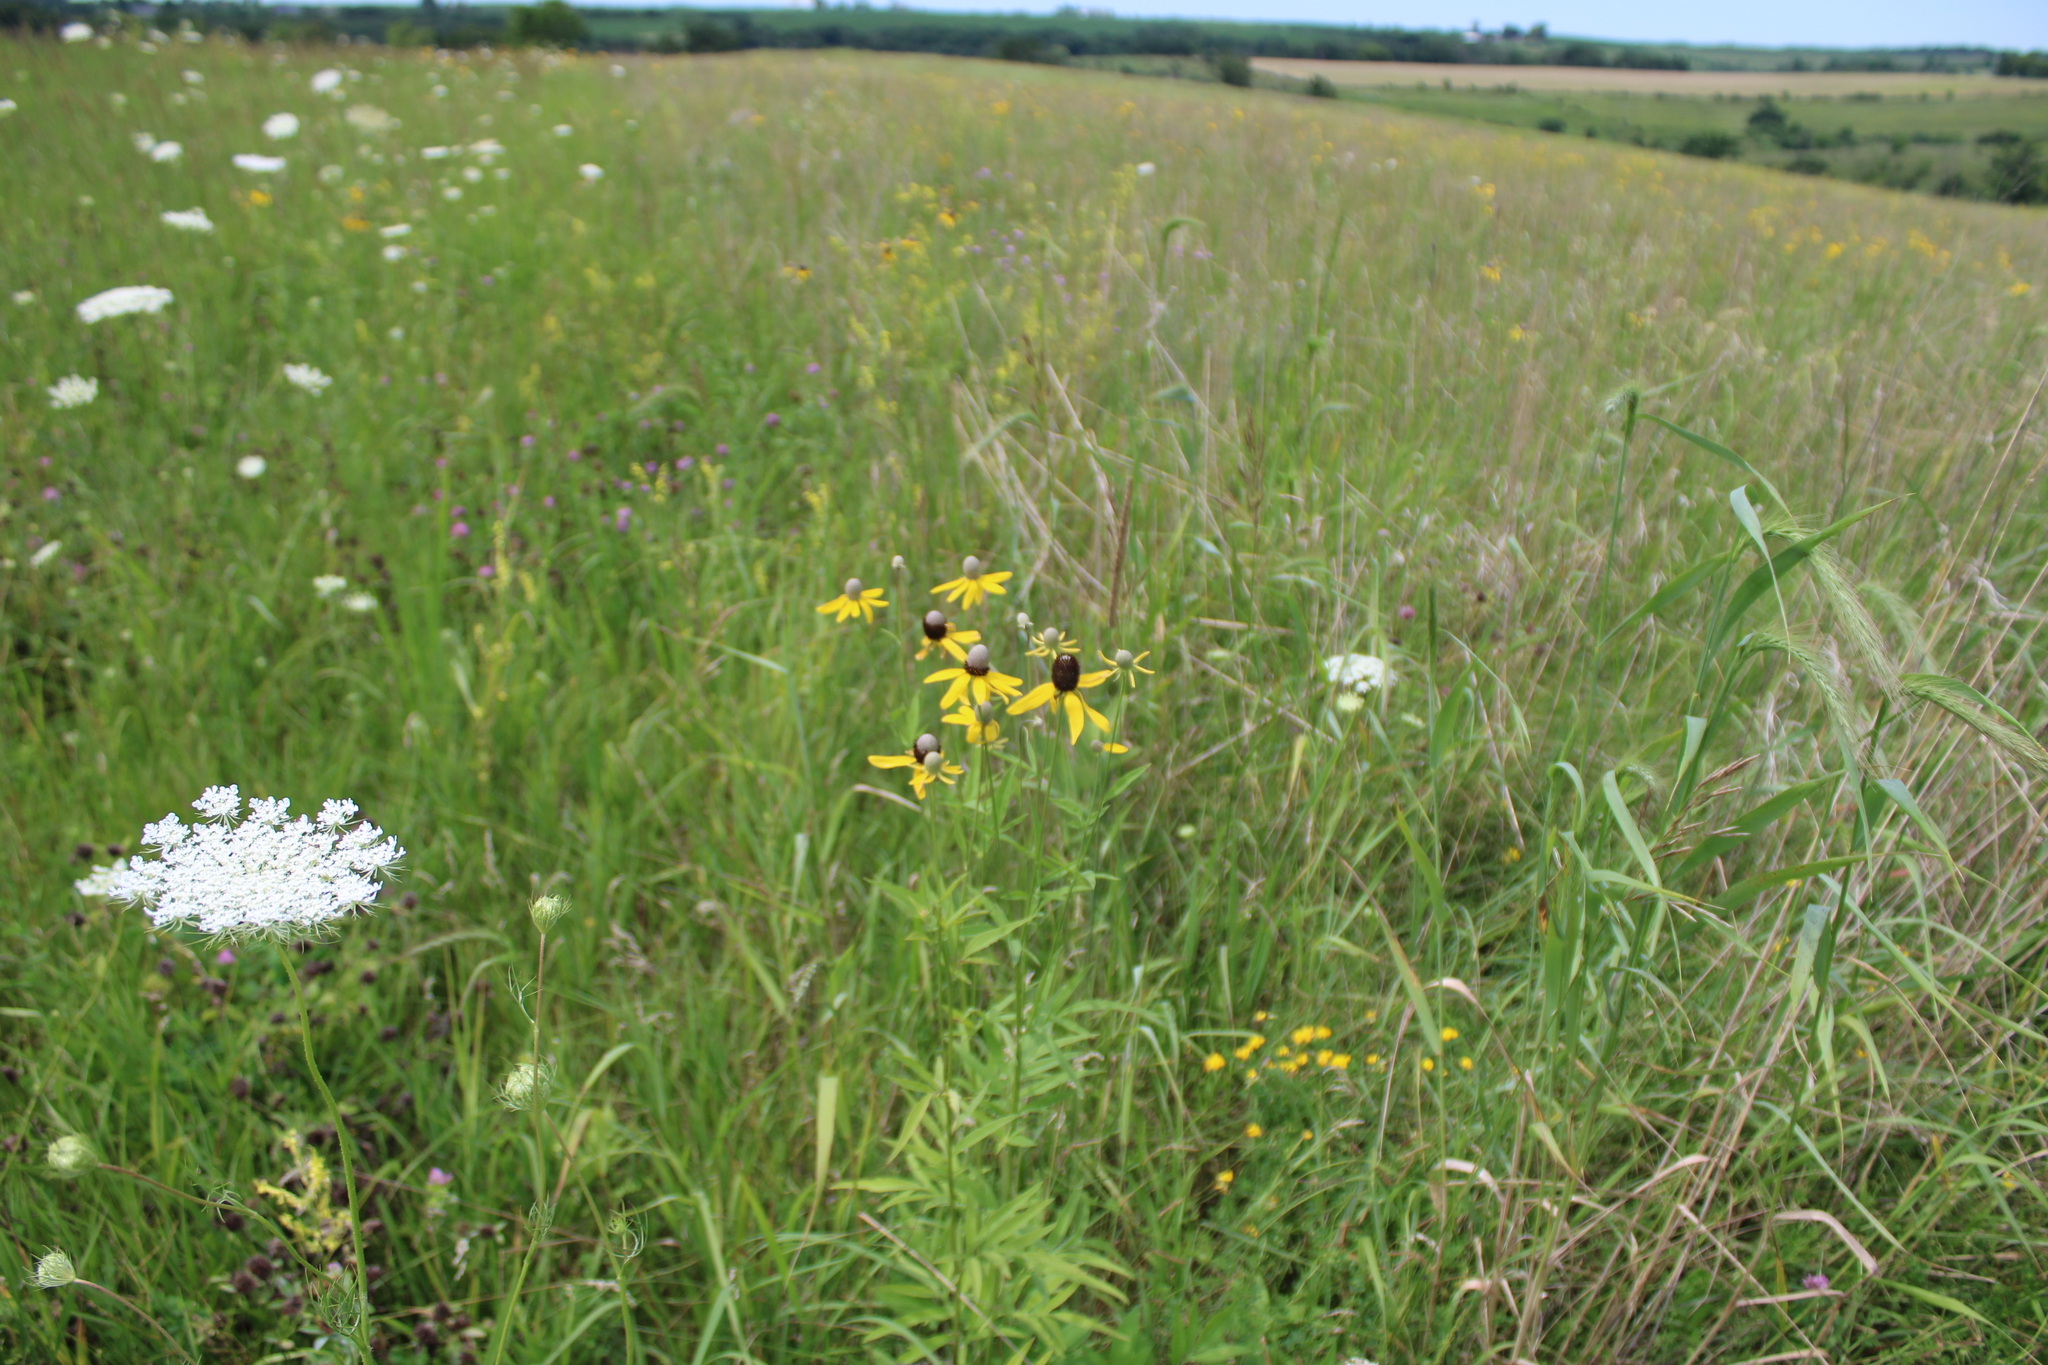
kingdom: Plantae
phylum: Tracheophyta
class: Magnoliopsida
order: Asterales
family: Asteraceae
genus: Ratibida
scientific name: Ratibida pinnata
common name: Drooping prairie-coneflower
